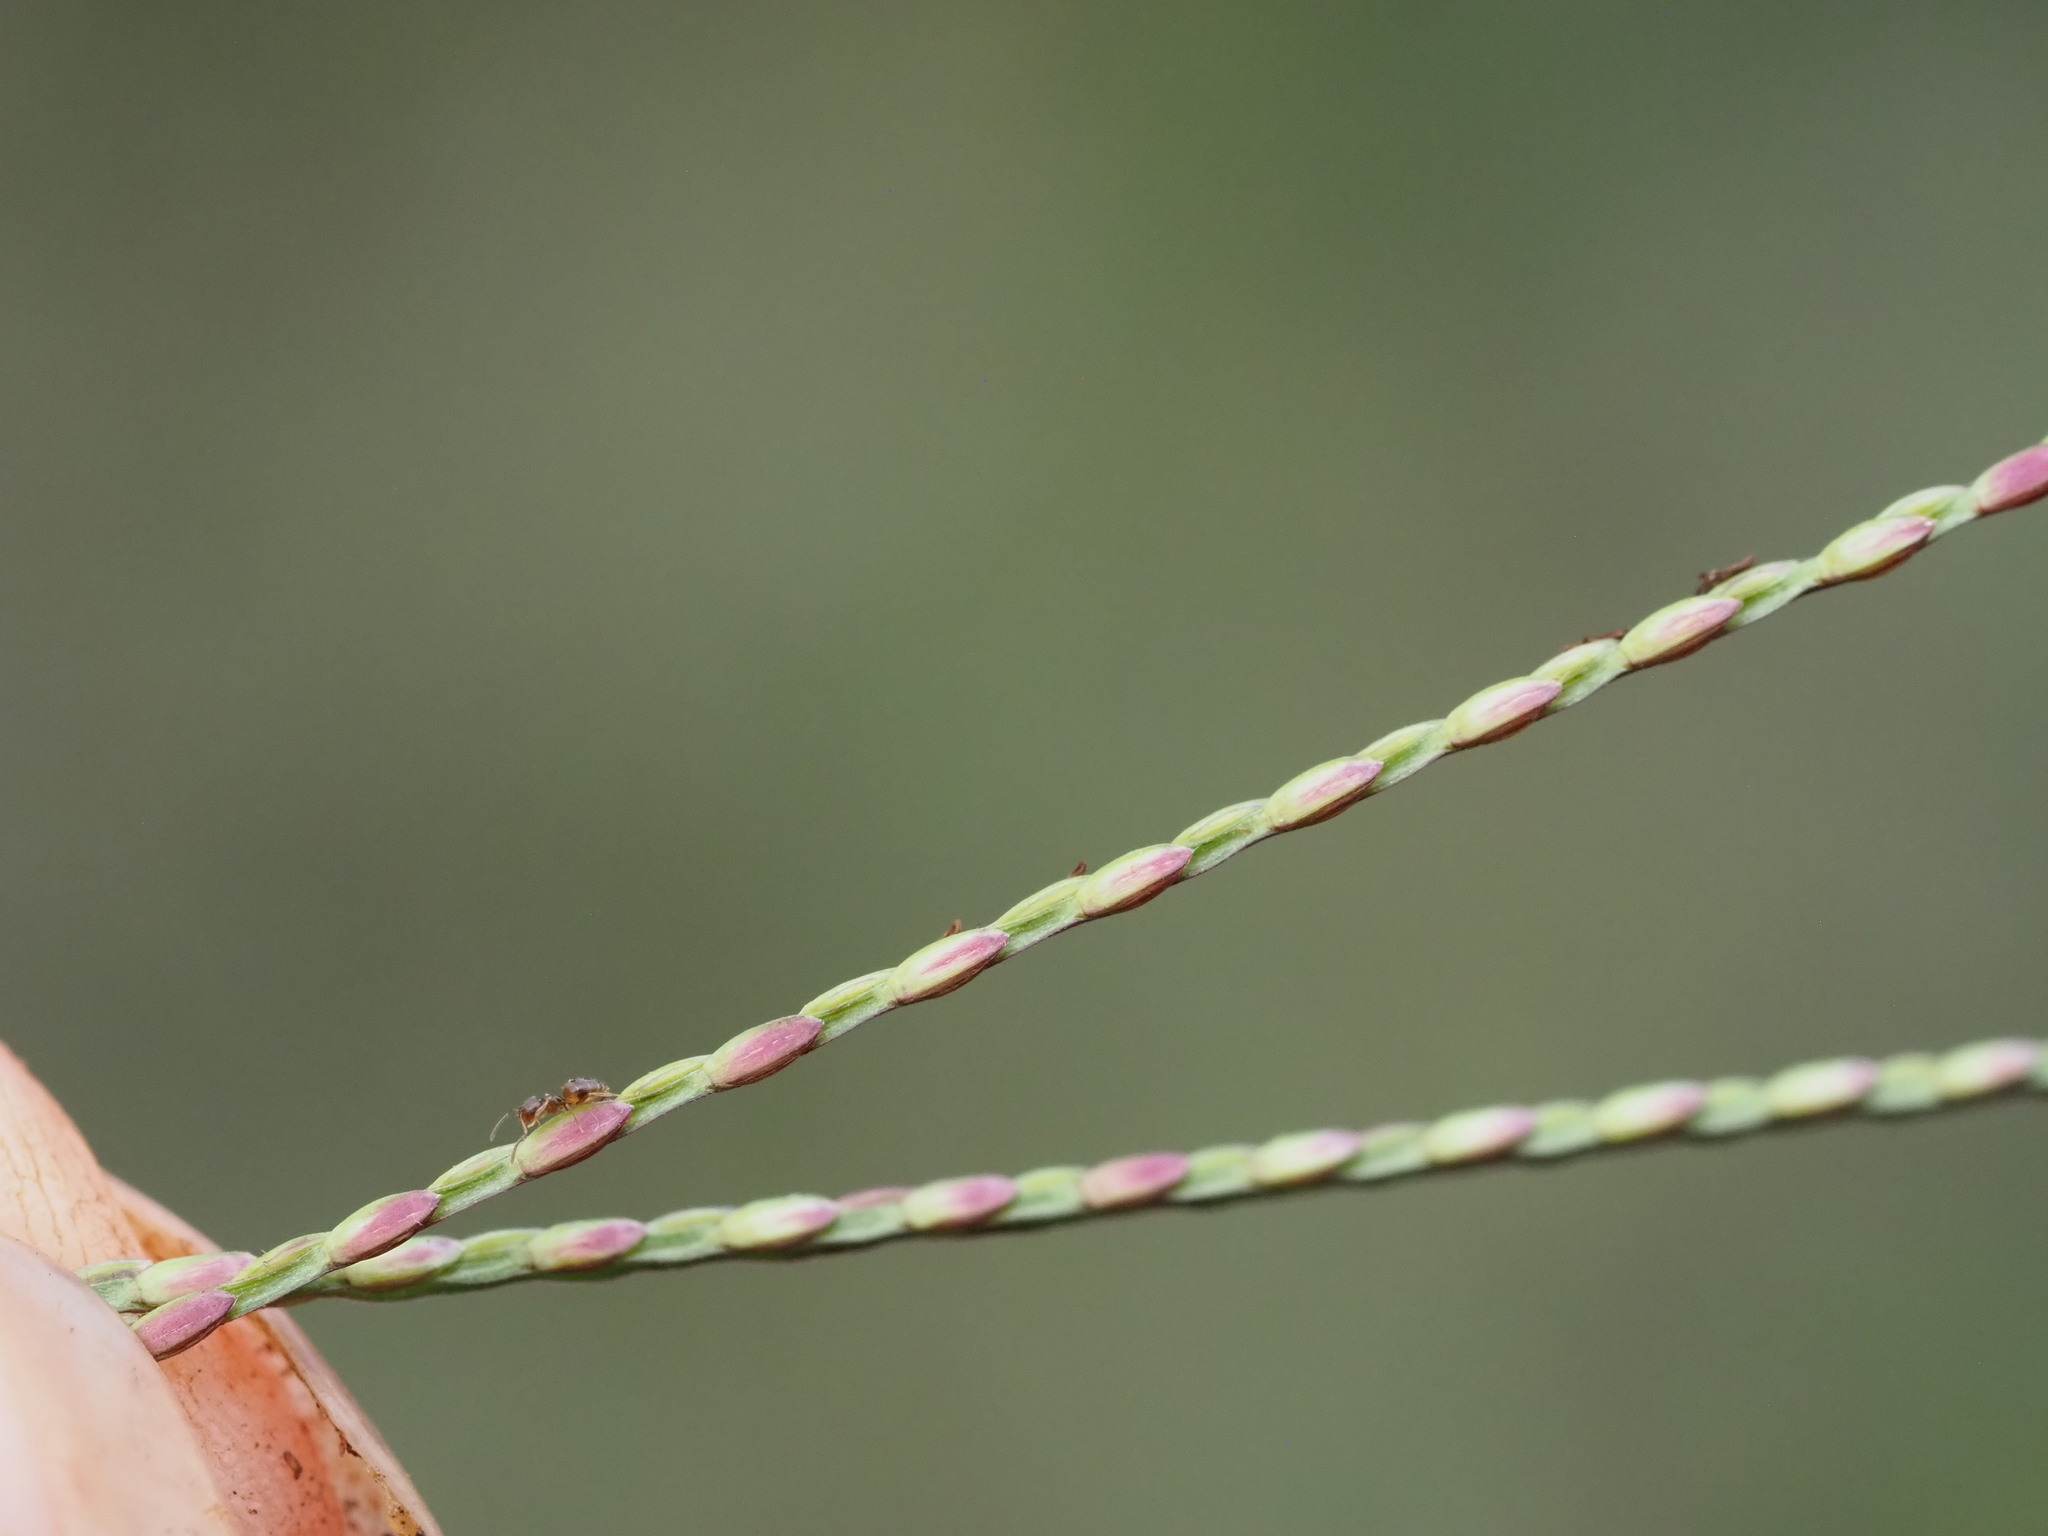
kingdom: Plantae
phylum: Tracheophyta
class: Liliopsida
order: Poales
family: Poaceae
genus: Axonopus
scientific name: Axonopus fissifolius
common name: Common carpetgrass
